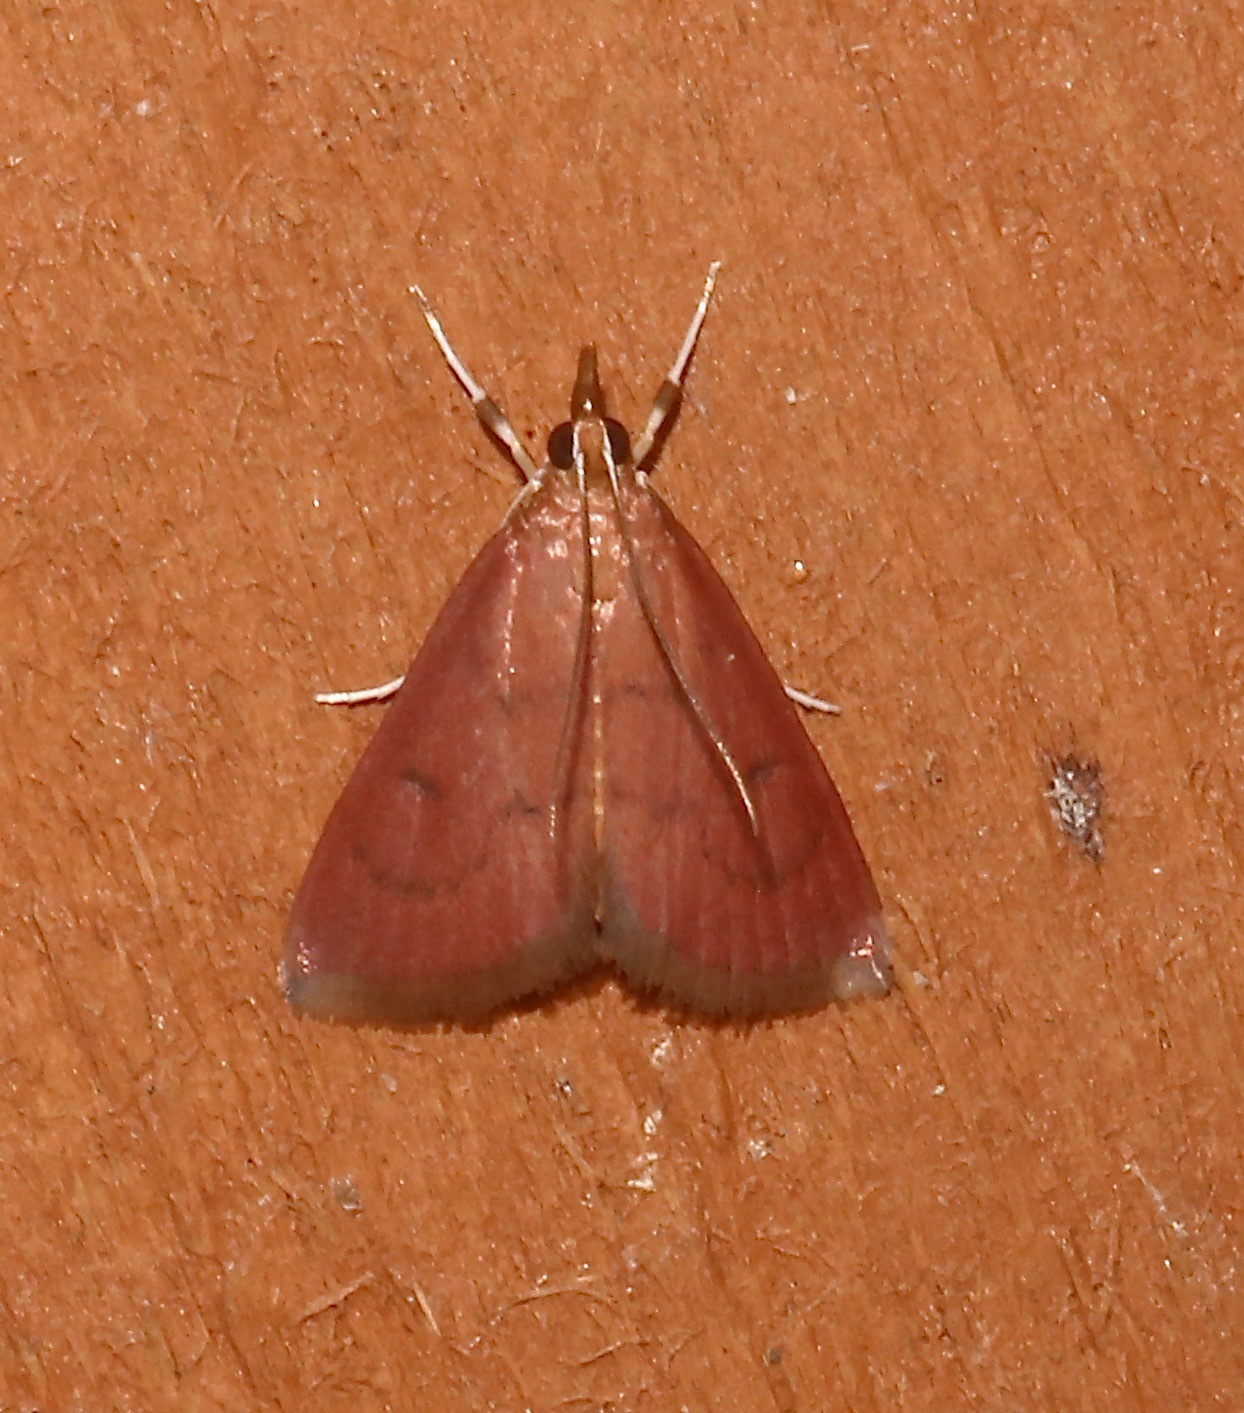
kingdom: Animalia
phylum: Arthropoda
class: Insecta
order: Lepidoptera
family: Crambidae
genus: Oenobotys
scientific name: Oenobotys vinotinctalis
